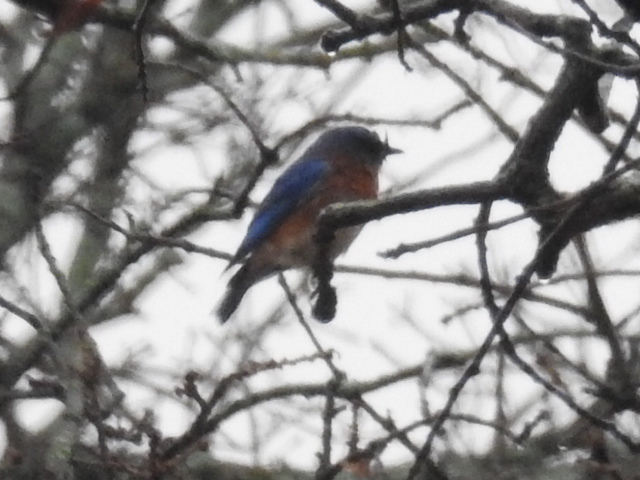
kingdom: Animalia
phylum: Chordata
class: Aves
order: Passeriformes
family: Turdidae
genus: Sialia
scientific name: Sialia sialis
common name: Eastern bluebird
